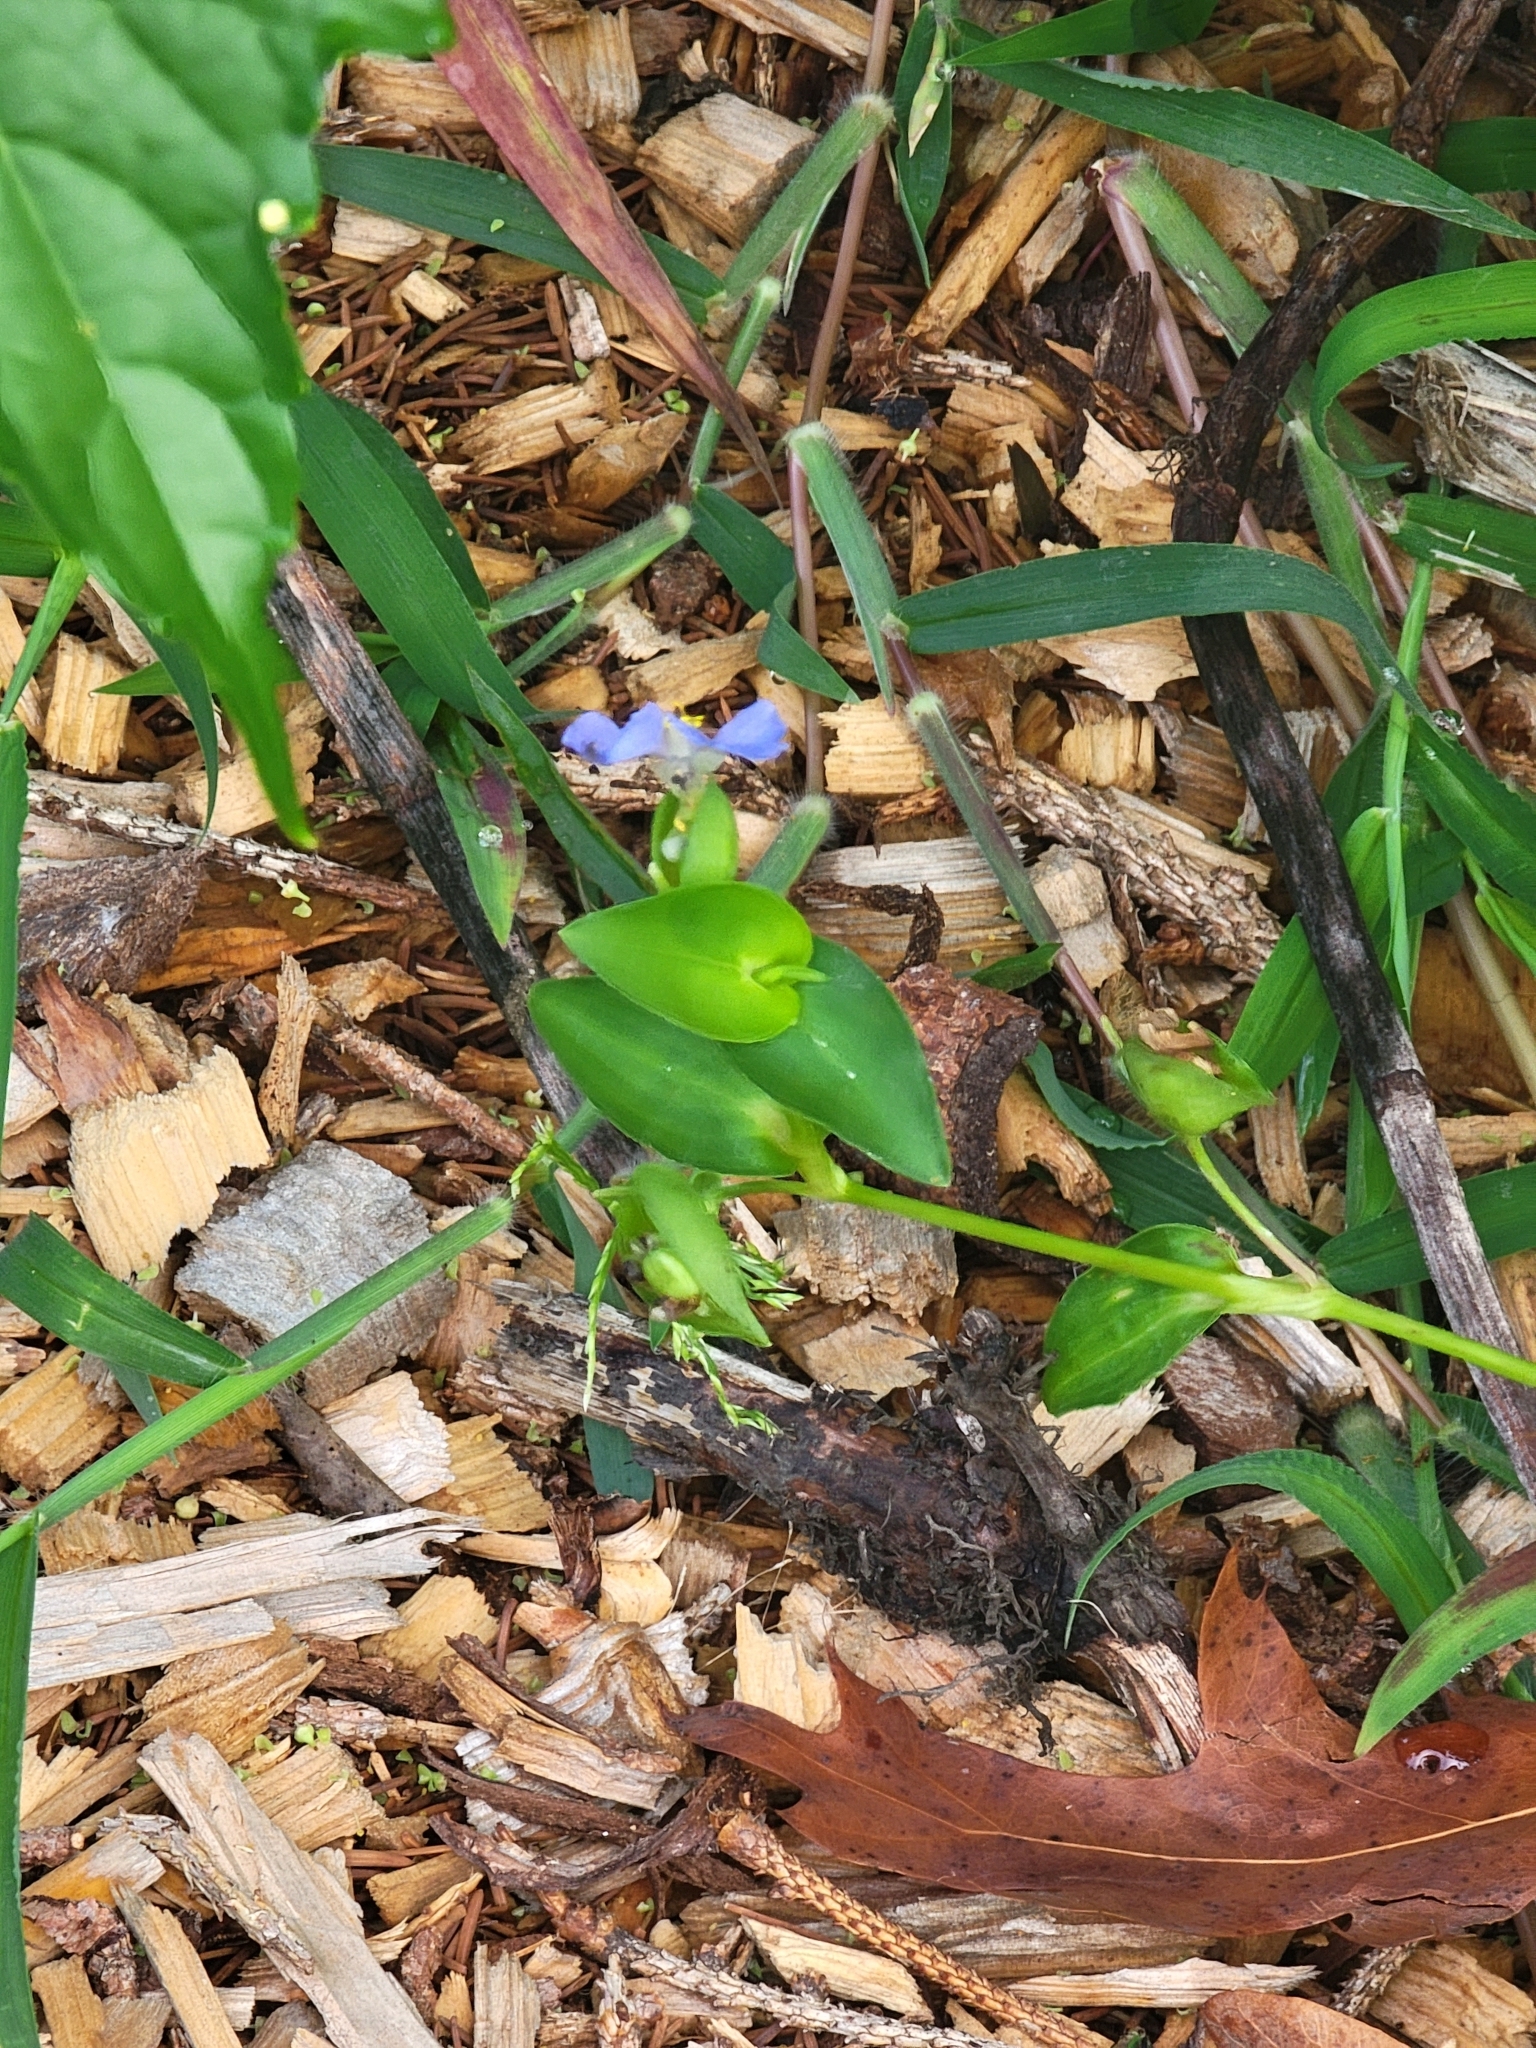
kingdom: Plantae
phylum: Tracheophyta
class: Liliopsida
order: Commelinales
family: Commelinaceae
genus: Commelina
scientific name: Commelina communis
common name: Asiatic dayflower
